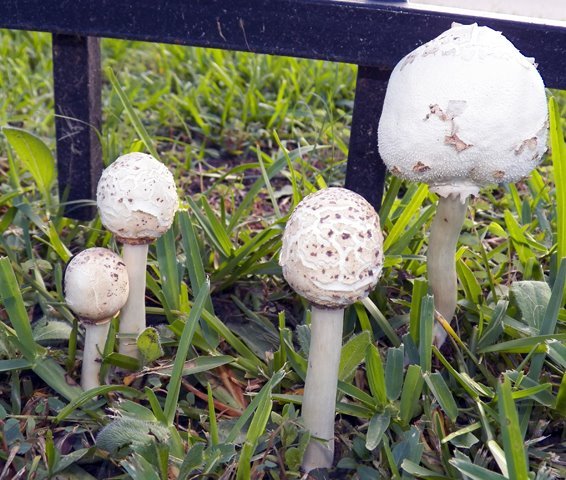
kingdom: Fungi
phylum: Basidiomycota
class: Agaricomycetes
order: Agaricales
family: Agaricaceae
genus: Chlorophyllum
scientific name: Chlorophyllum molybdites
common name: False parasol
